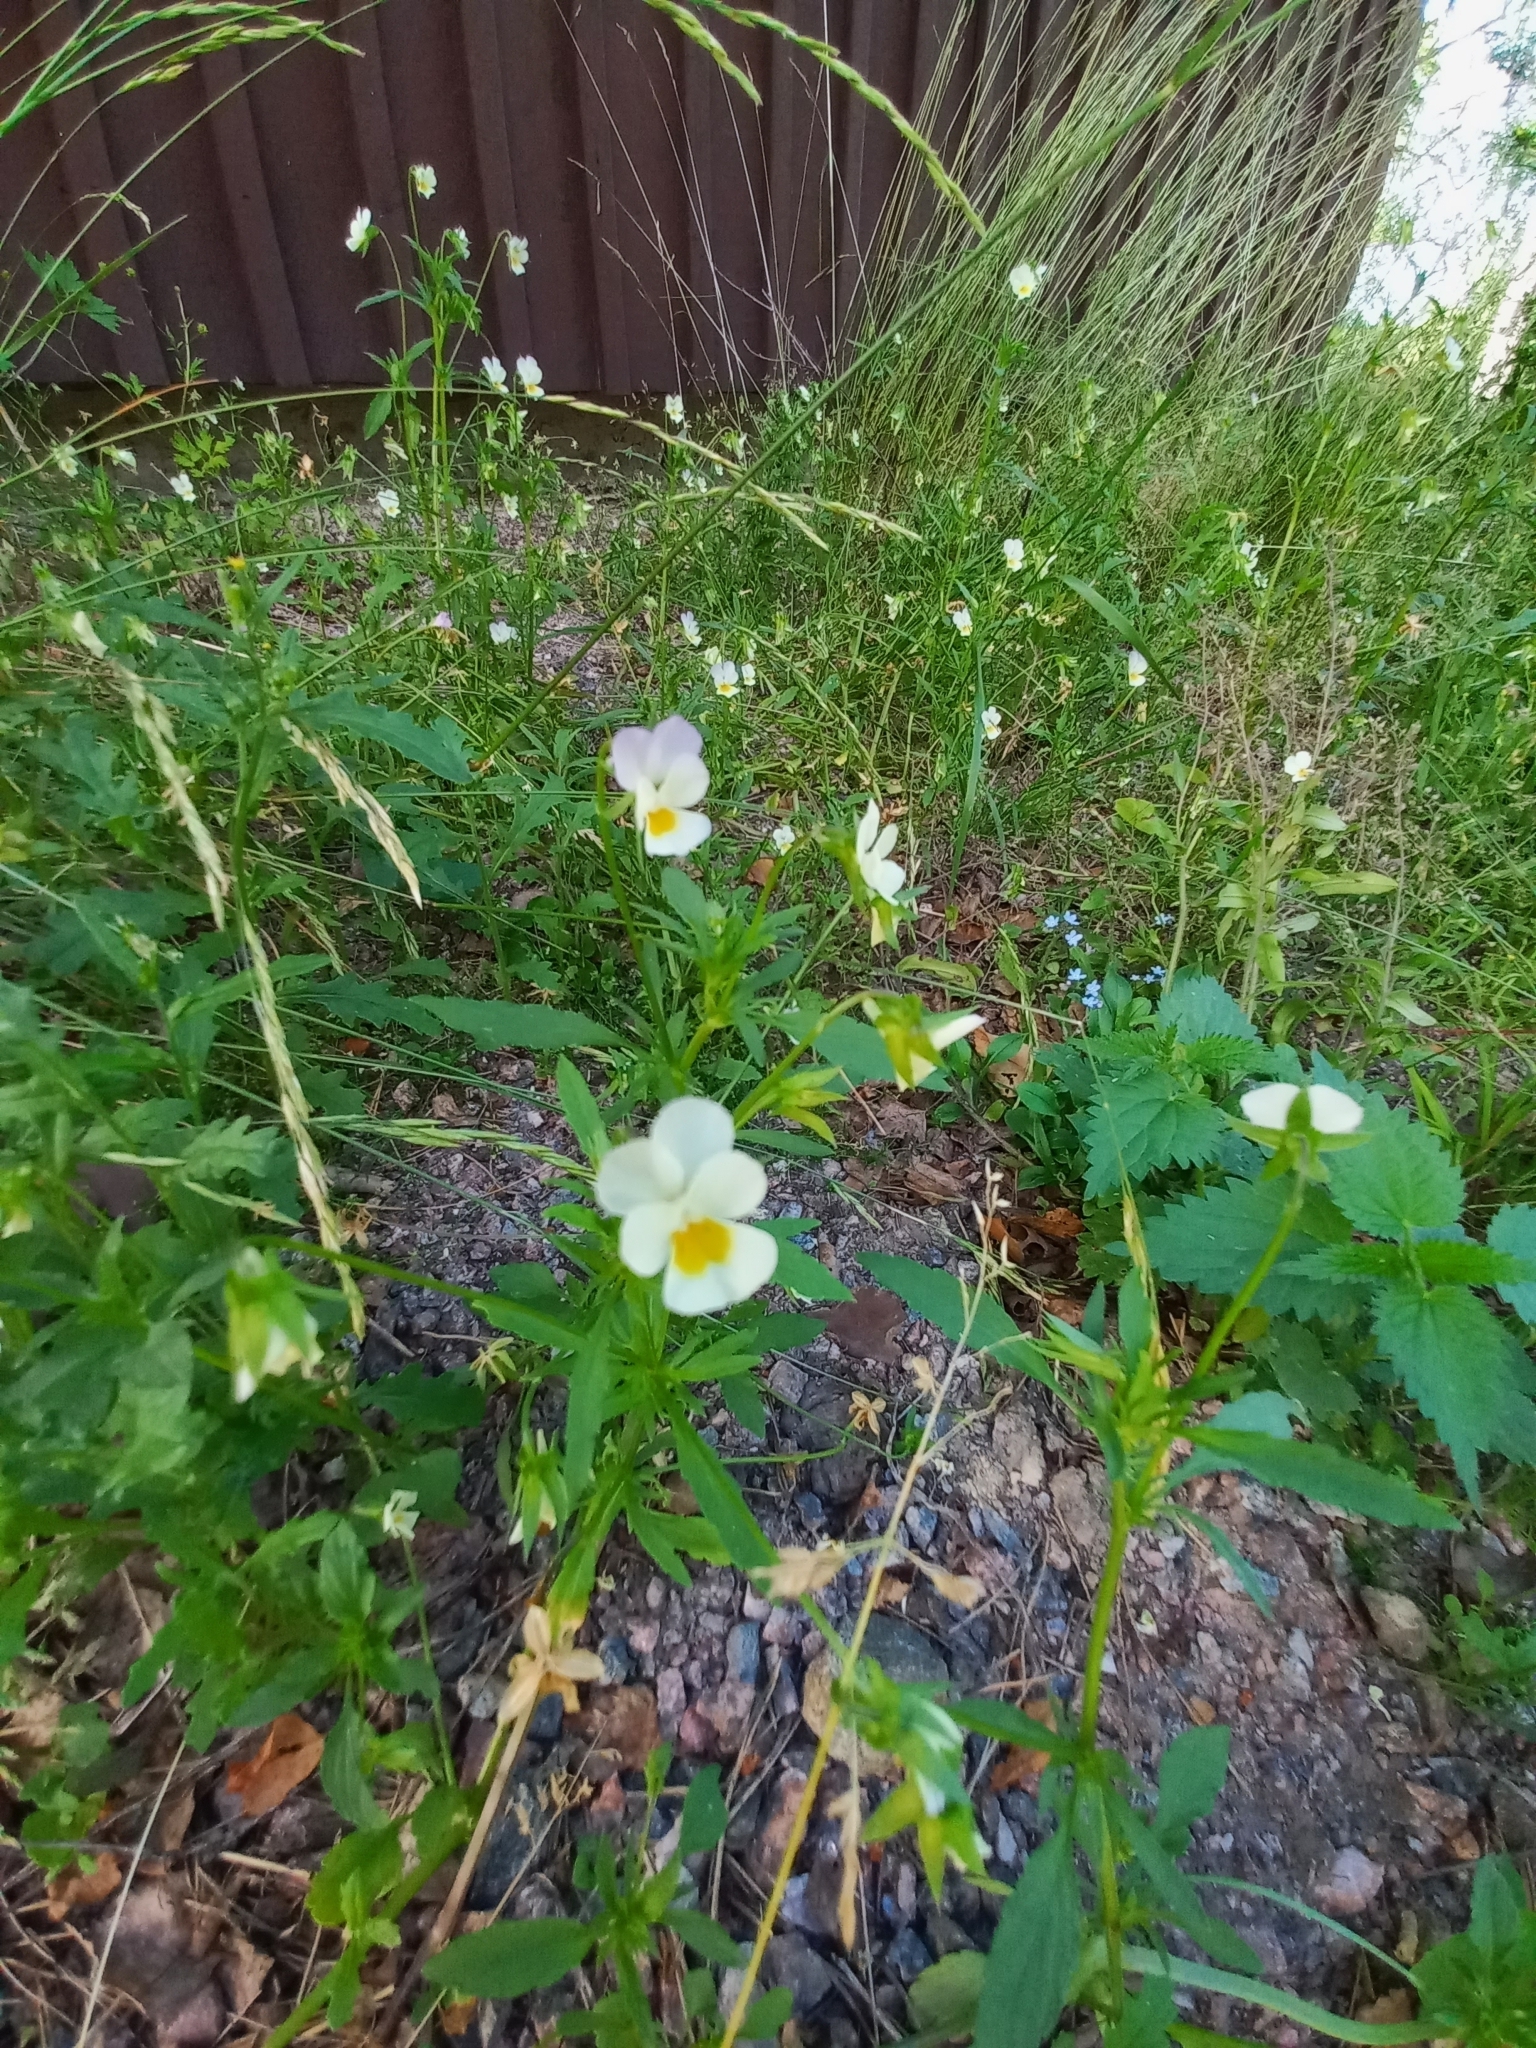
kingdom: Plantae
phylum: Tracheophyta
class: Magnoliopsida
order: Malpighiales
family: Violaceae
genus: Viola
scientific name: Viola arvensis
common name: Field pansy
